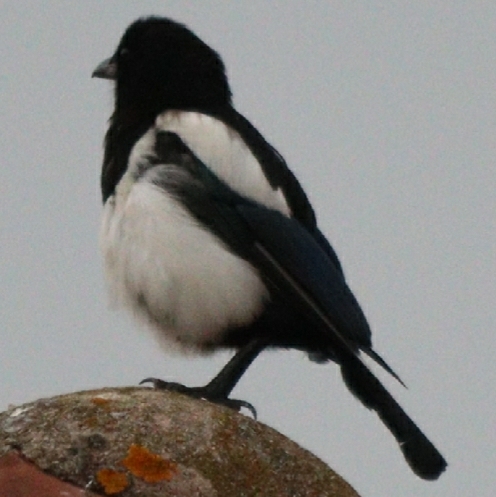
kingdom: Animalia
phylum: Chordata
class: Aves
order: Passeriformes
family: Corvidae
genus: Pica
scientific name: Pica pica
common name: Eurasian magpie
